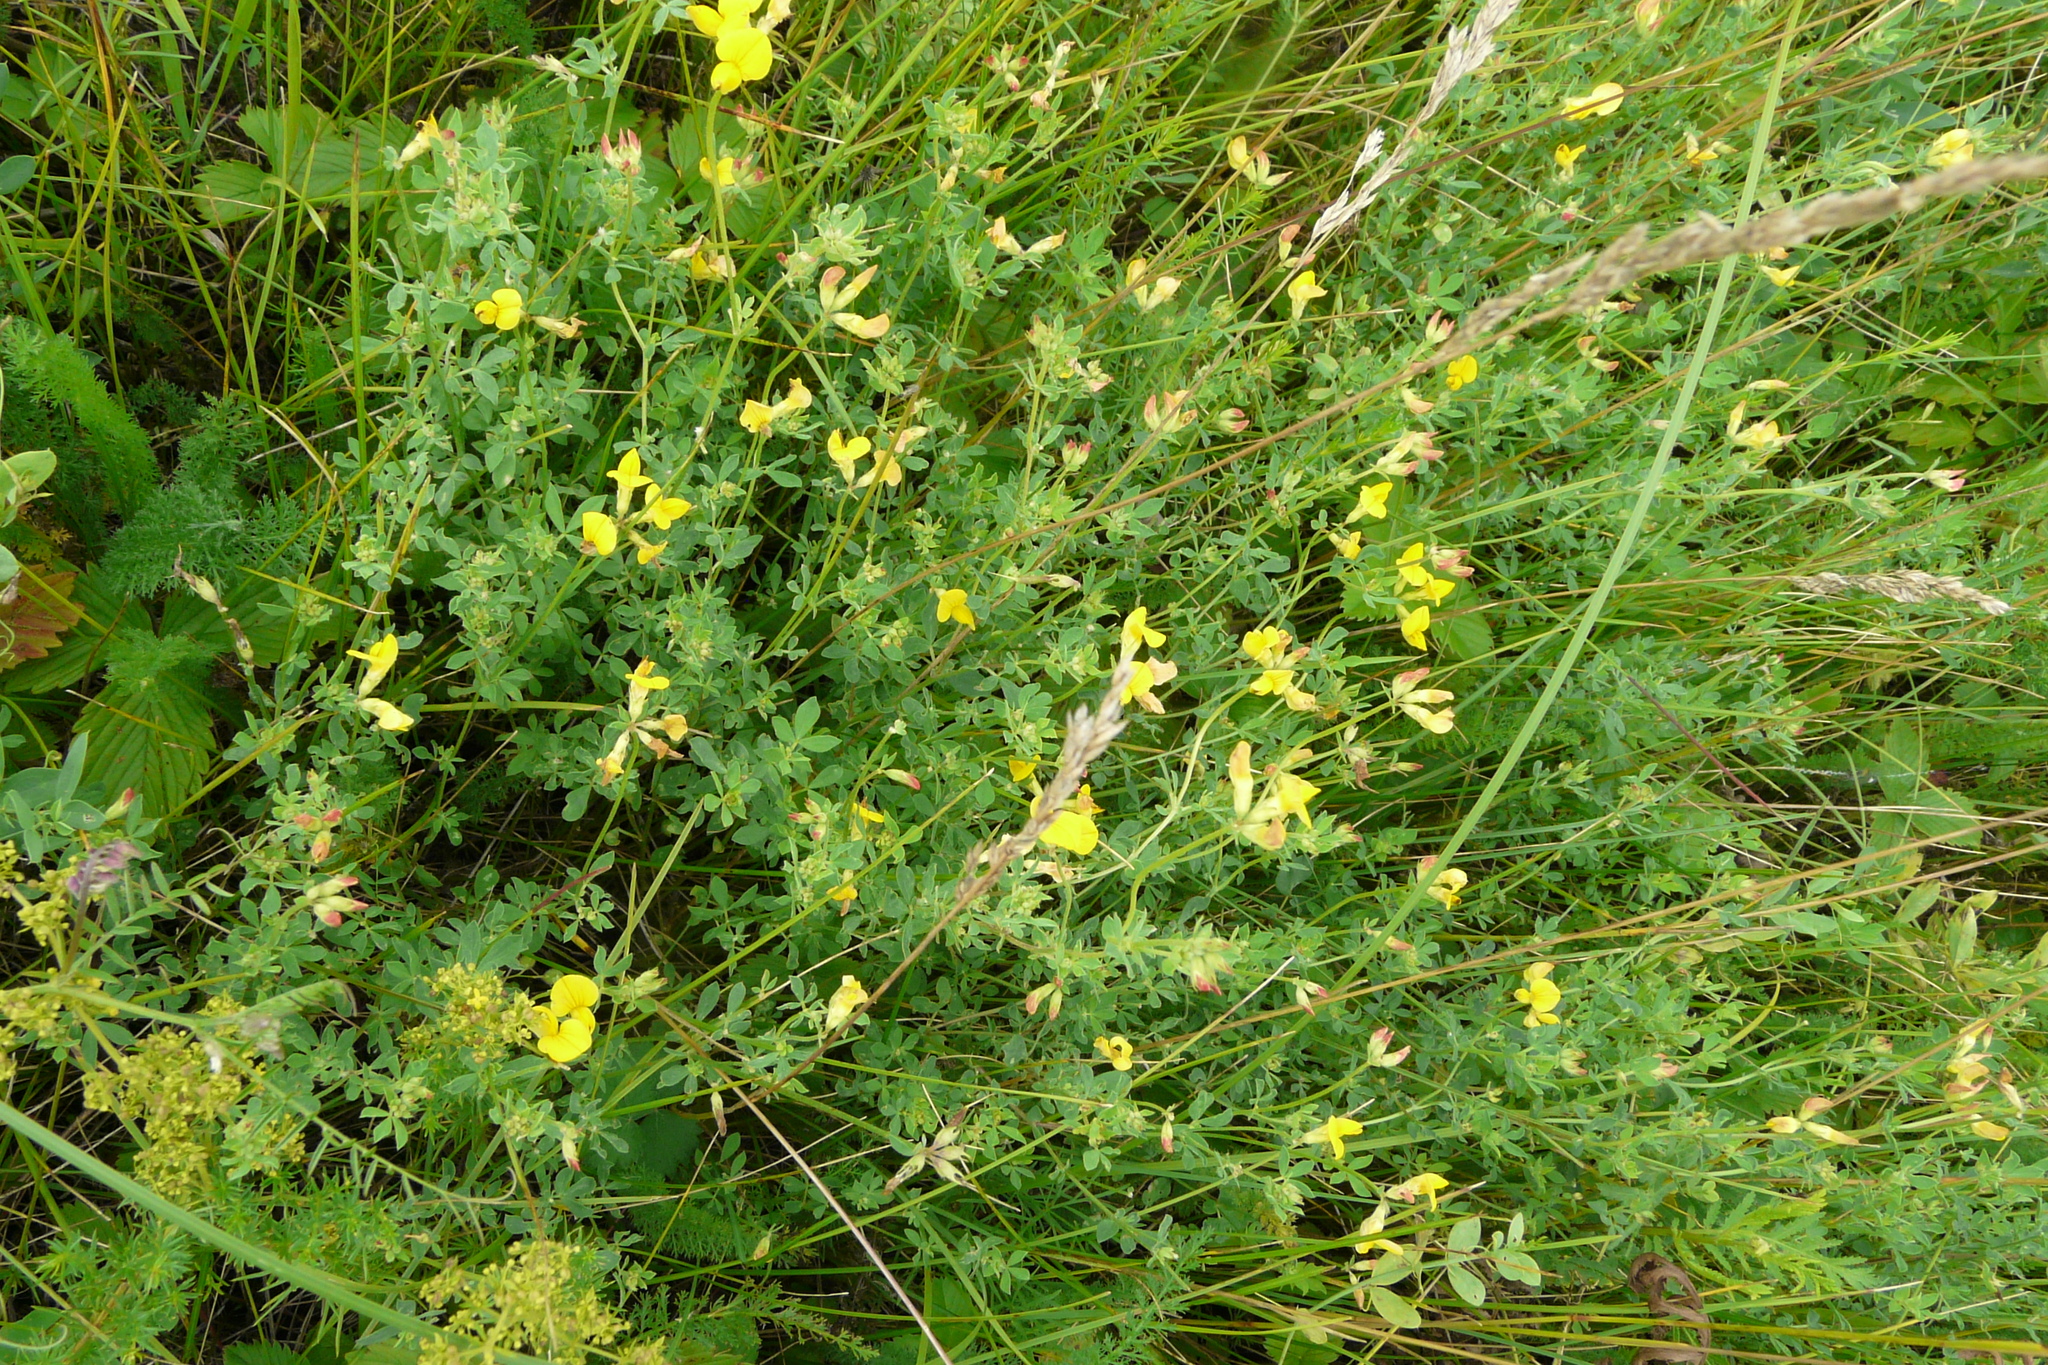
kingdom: Plantae
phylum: Tracheophyta
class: Magnoliopsida
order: Fabales
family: Fabaceae
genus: Lotus
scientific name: Lotus corniculatus
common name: Common bird's-foot-trefoil
